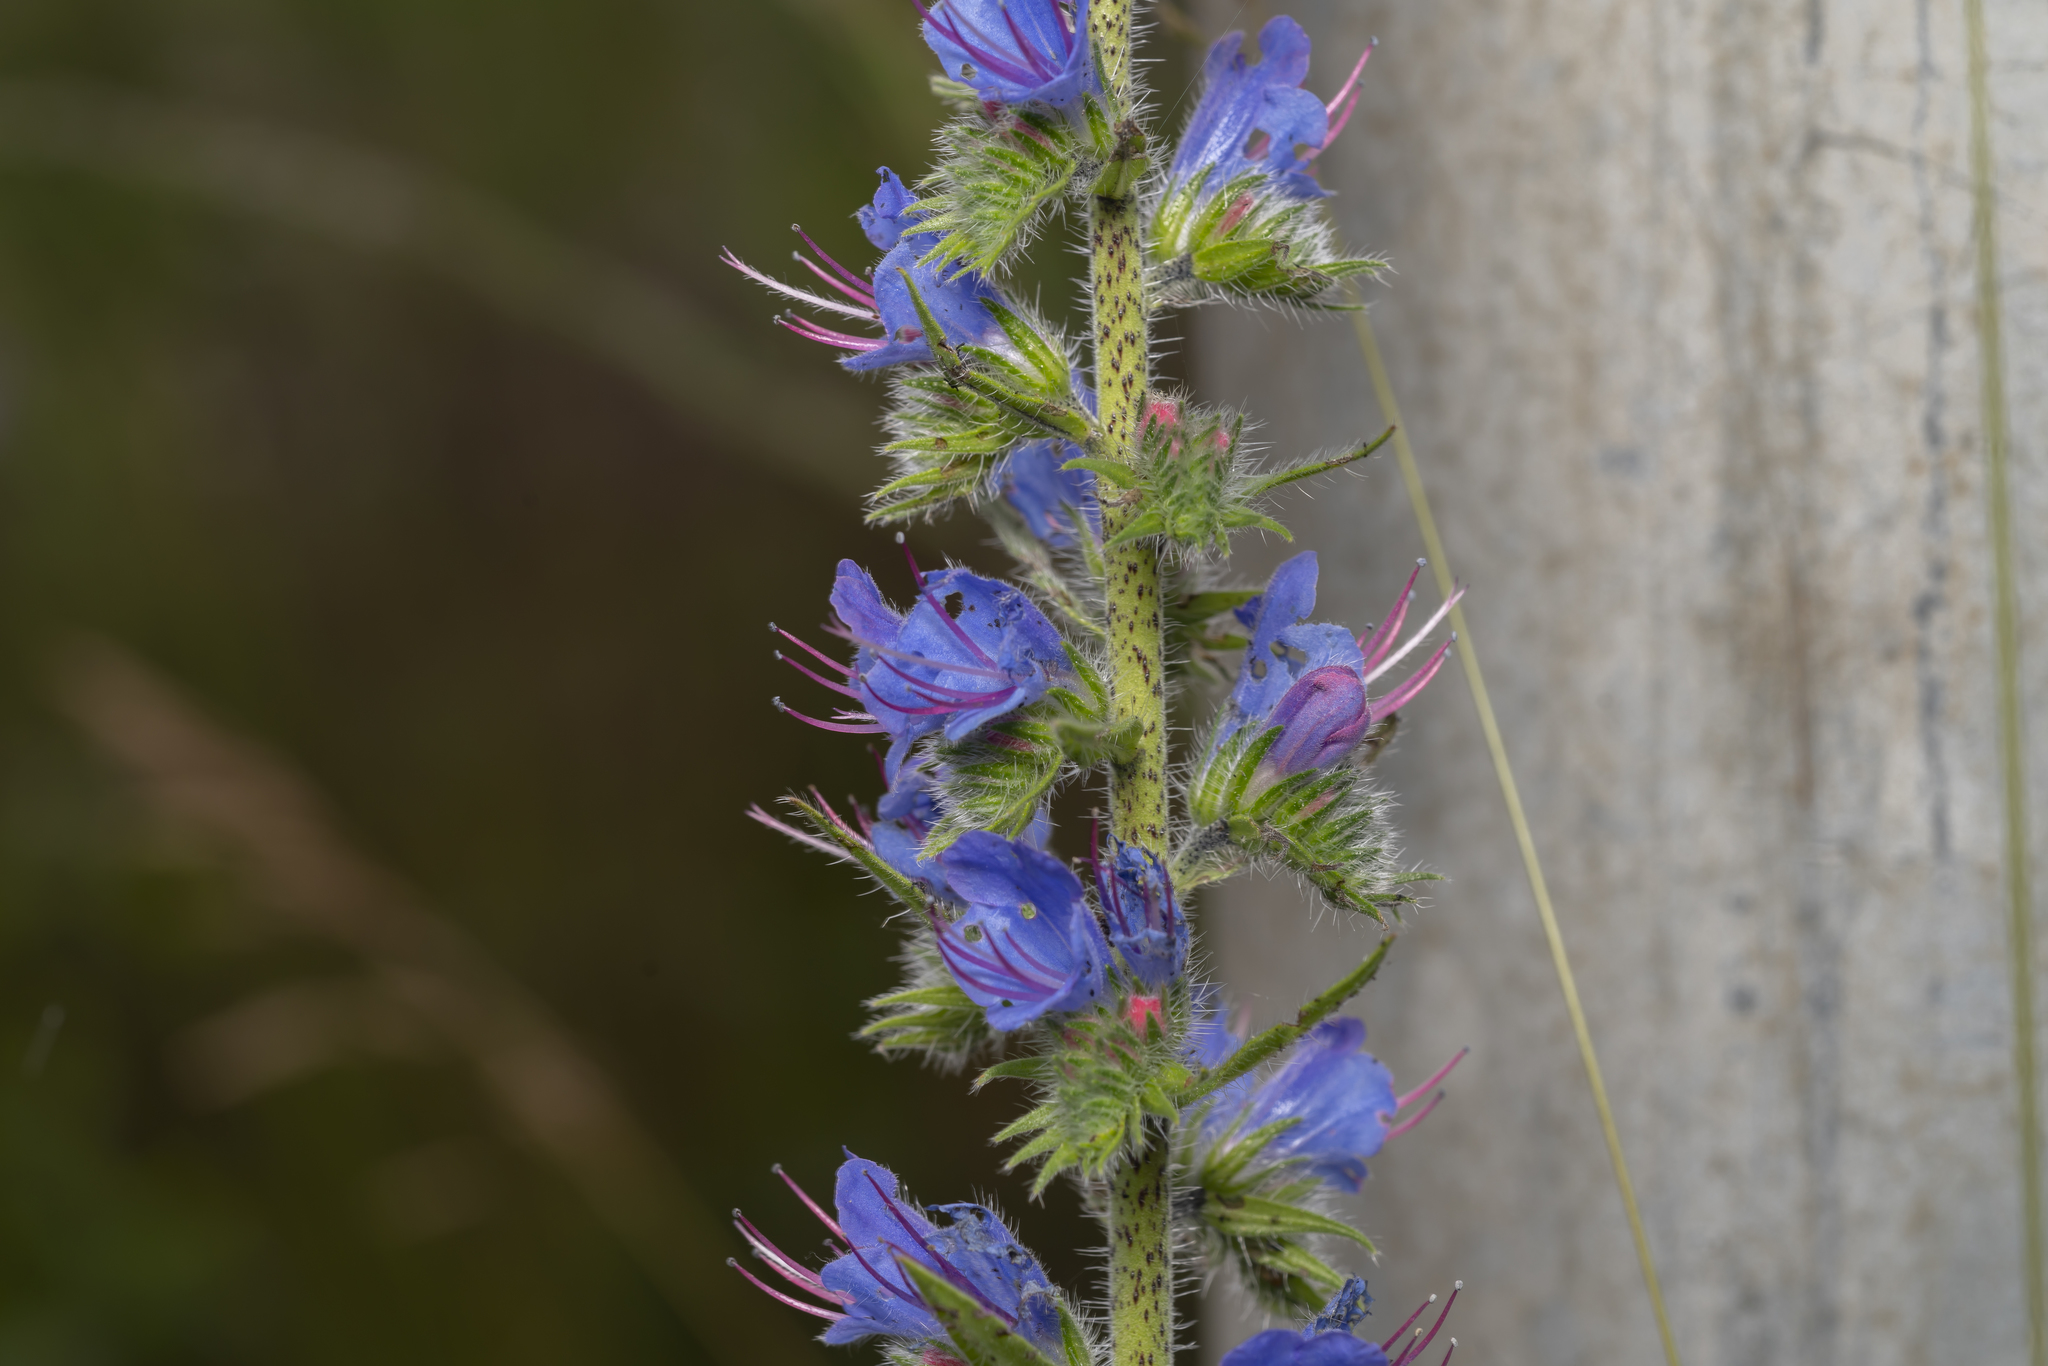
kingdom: Plantae
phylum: Tracheophyta
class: Magnoliopsida
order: Boraginales
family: Boraginaceae
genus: Echium
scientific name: Echium vulgare
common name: Common viper's bugloss
